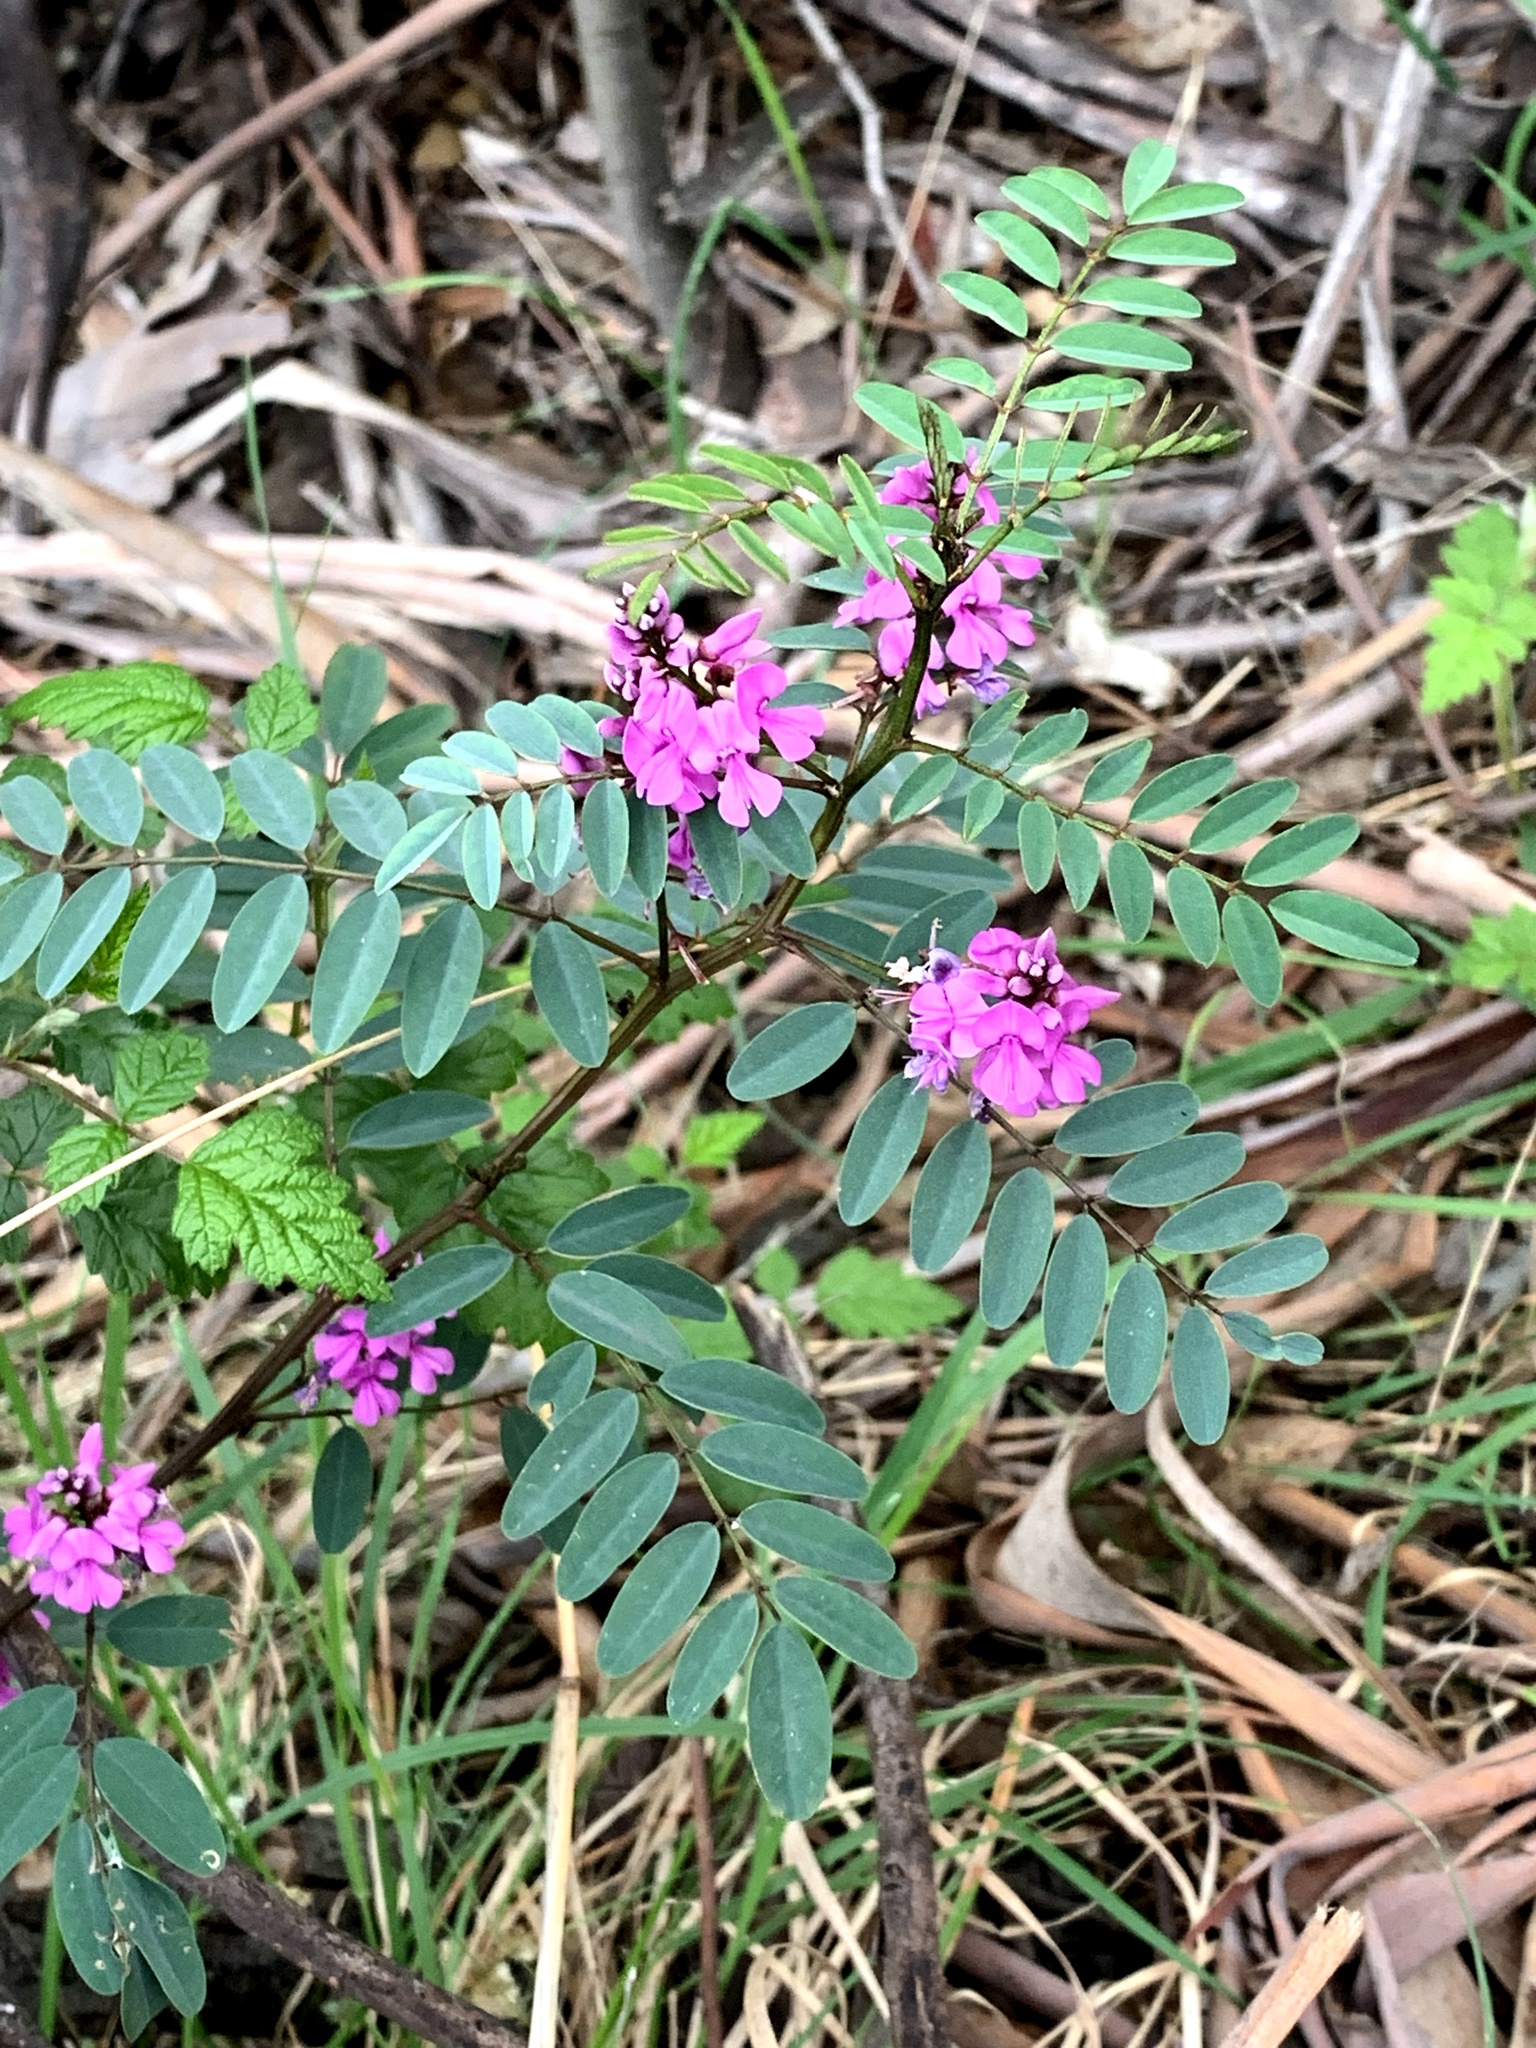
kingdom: Plantae
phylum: Tracheophyta
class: Magnoliopsida
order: Fabales
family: Fabaceae
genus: Indigofera
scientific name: Indigofera australis
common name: Australian indigo
